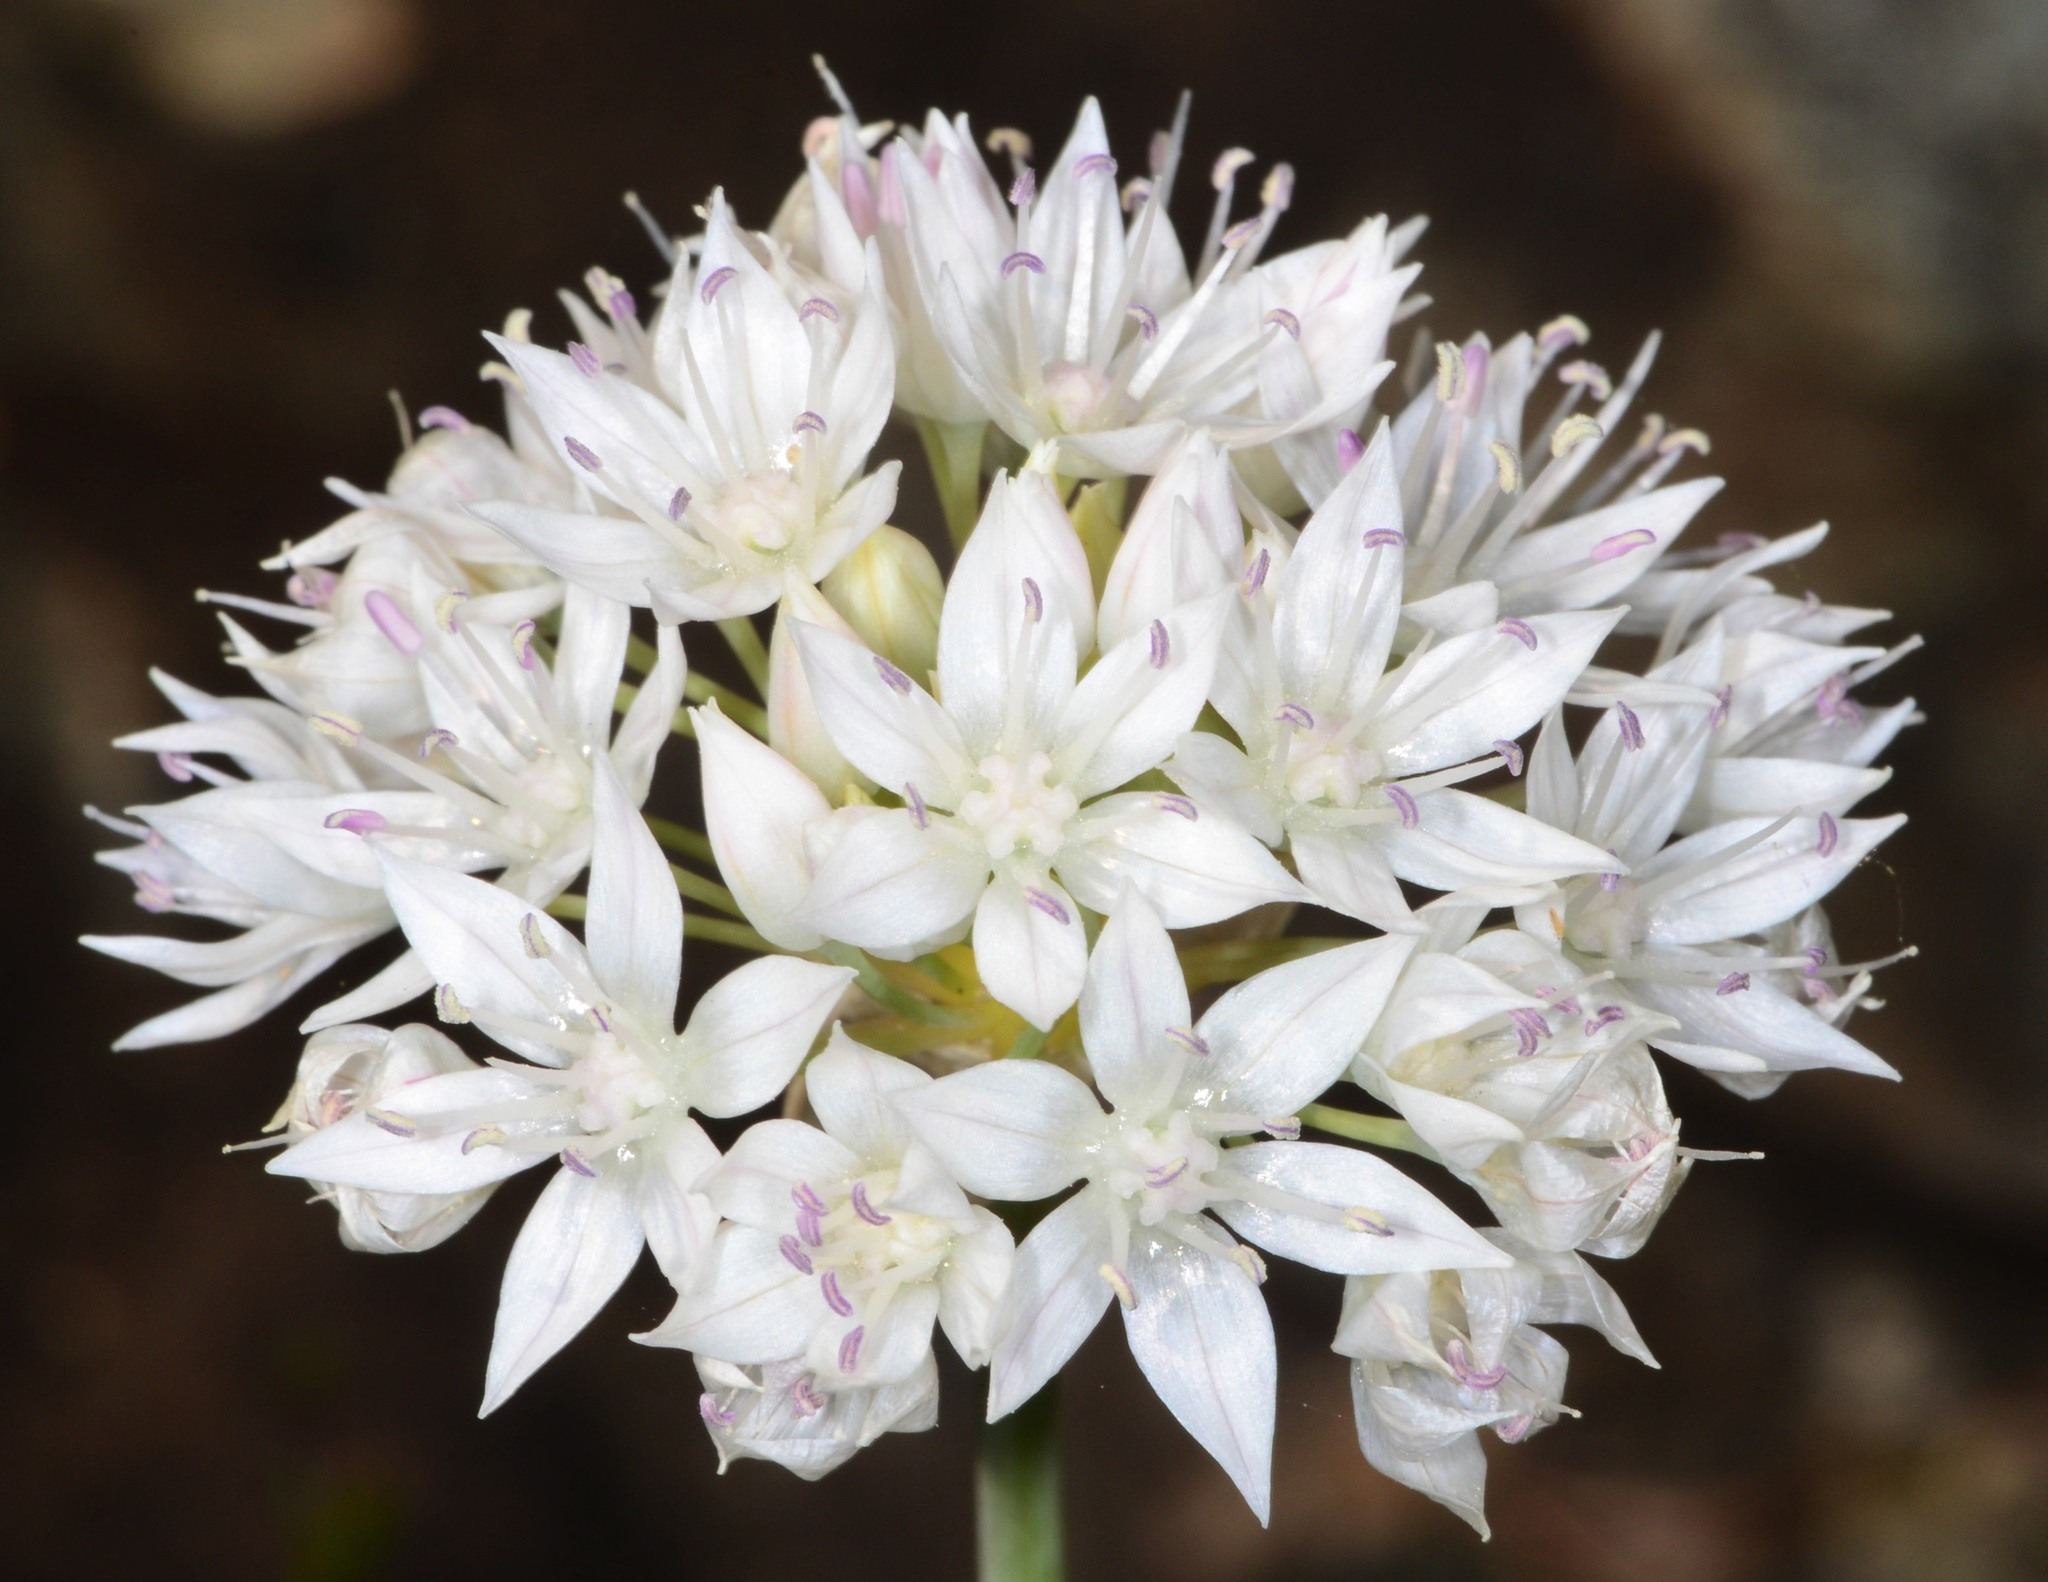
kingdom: Plantae
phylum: Tracheophyta
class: Liliopsida
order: Asparagales
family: Amaryllidaceae
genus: Allium
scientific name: Allium amplectens
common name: Narrow-leaved onion
